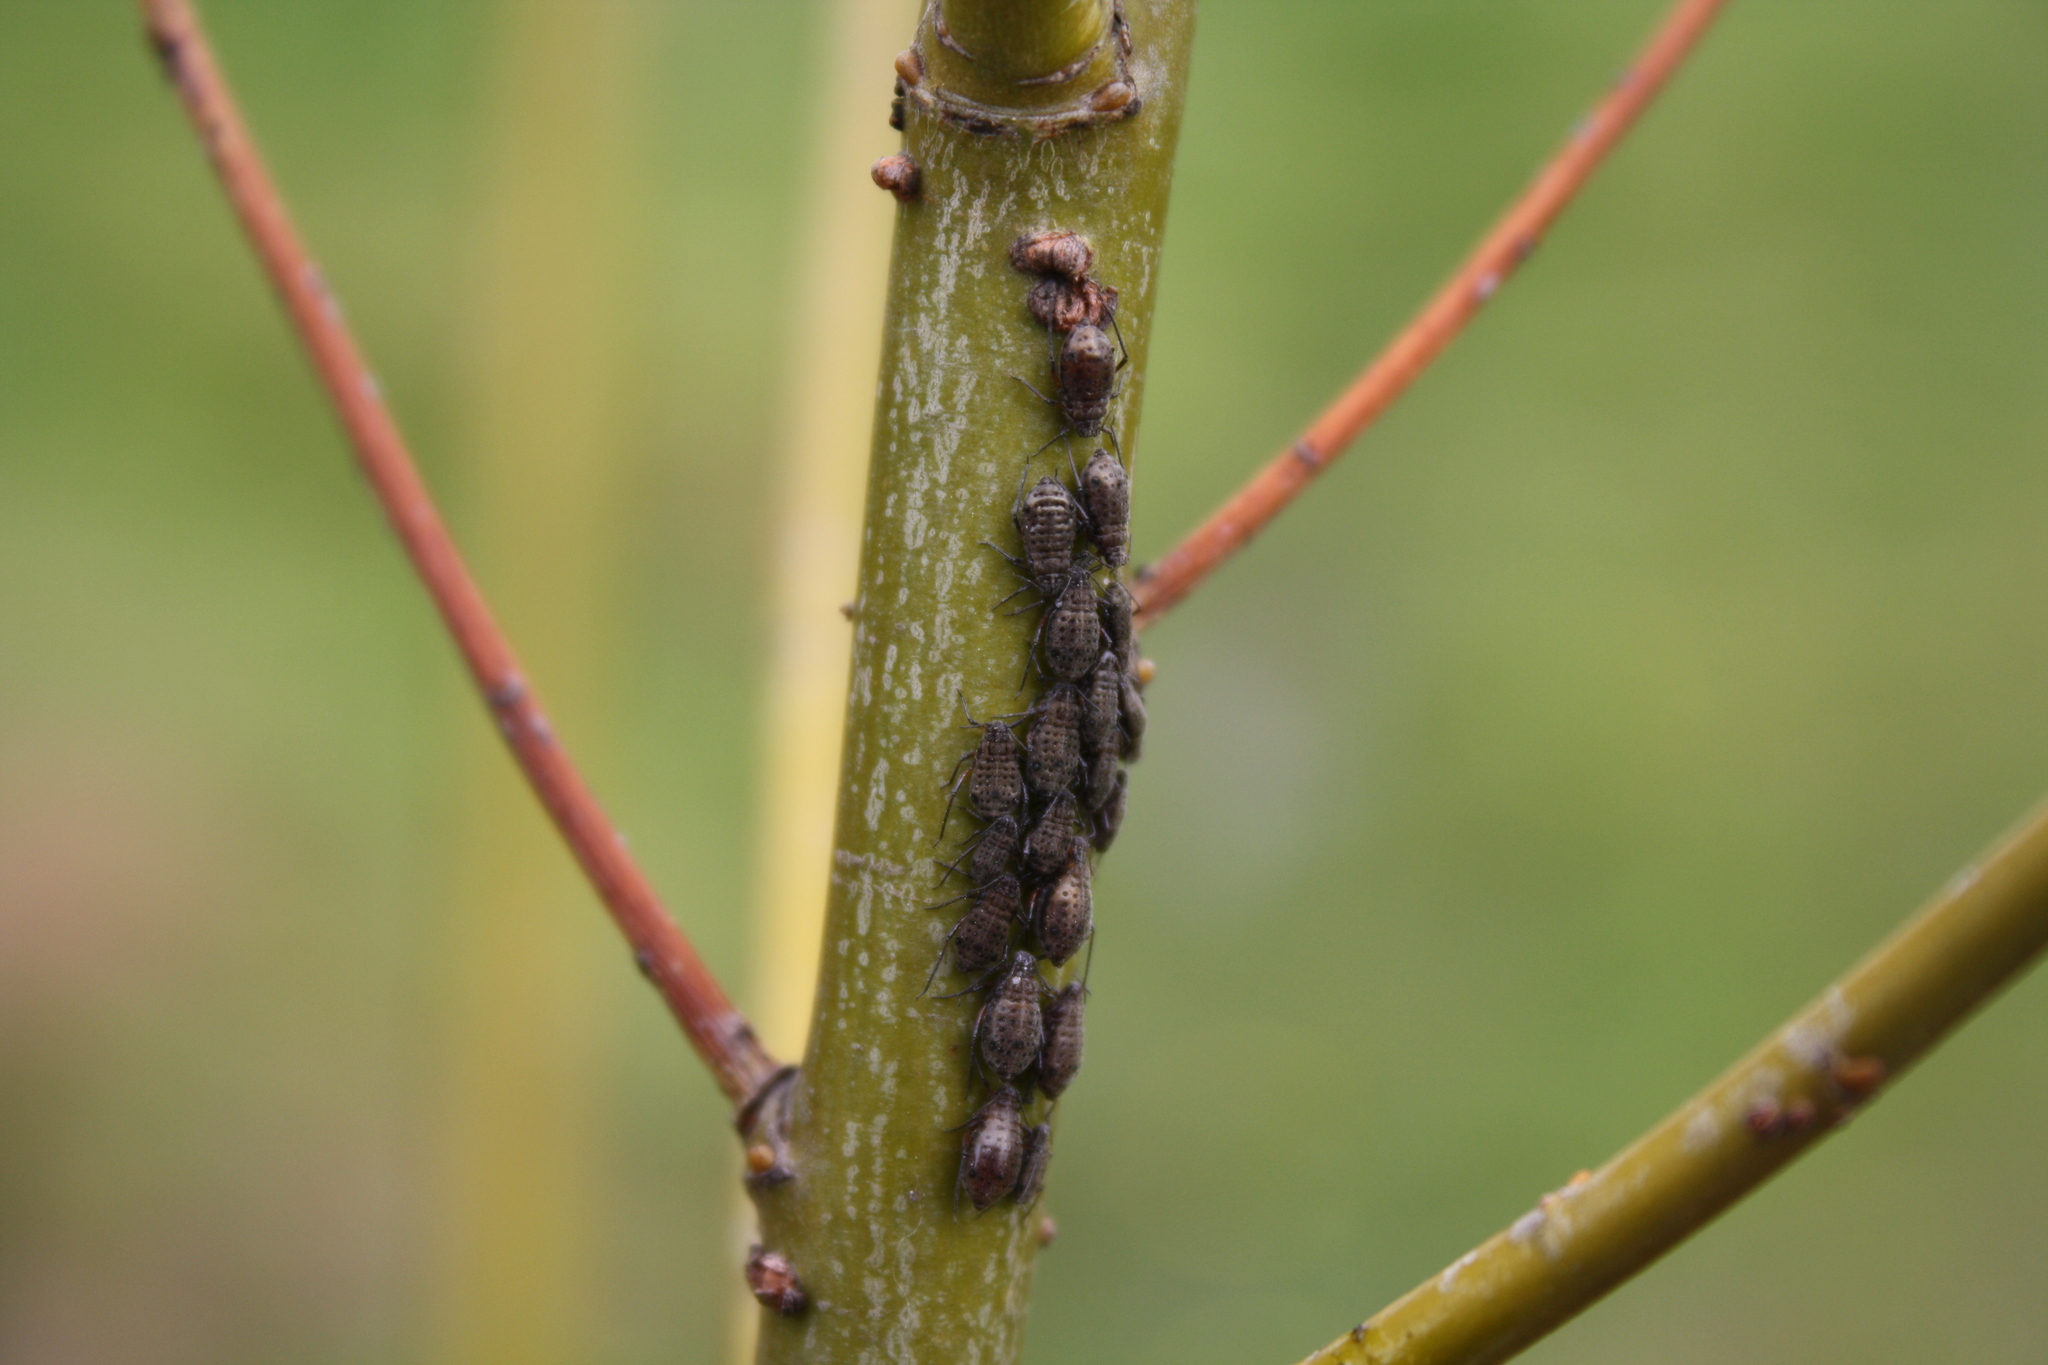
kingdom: Animalia
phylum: Arthropoda
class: Insecta
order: Hemiptera
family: Aphididae
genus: Tuberolachnus
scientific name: Tuberolachnus salignus
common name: Giant willow aphid
